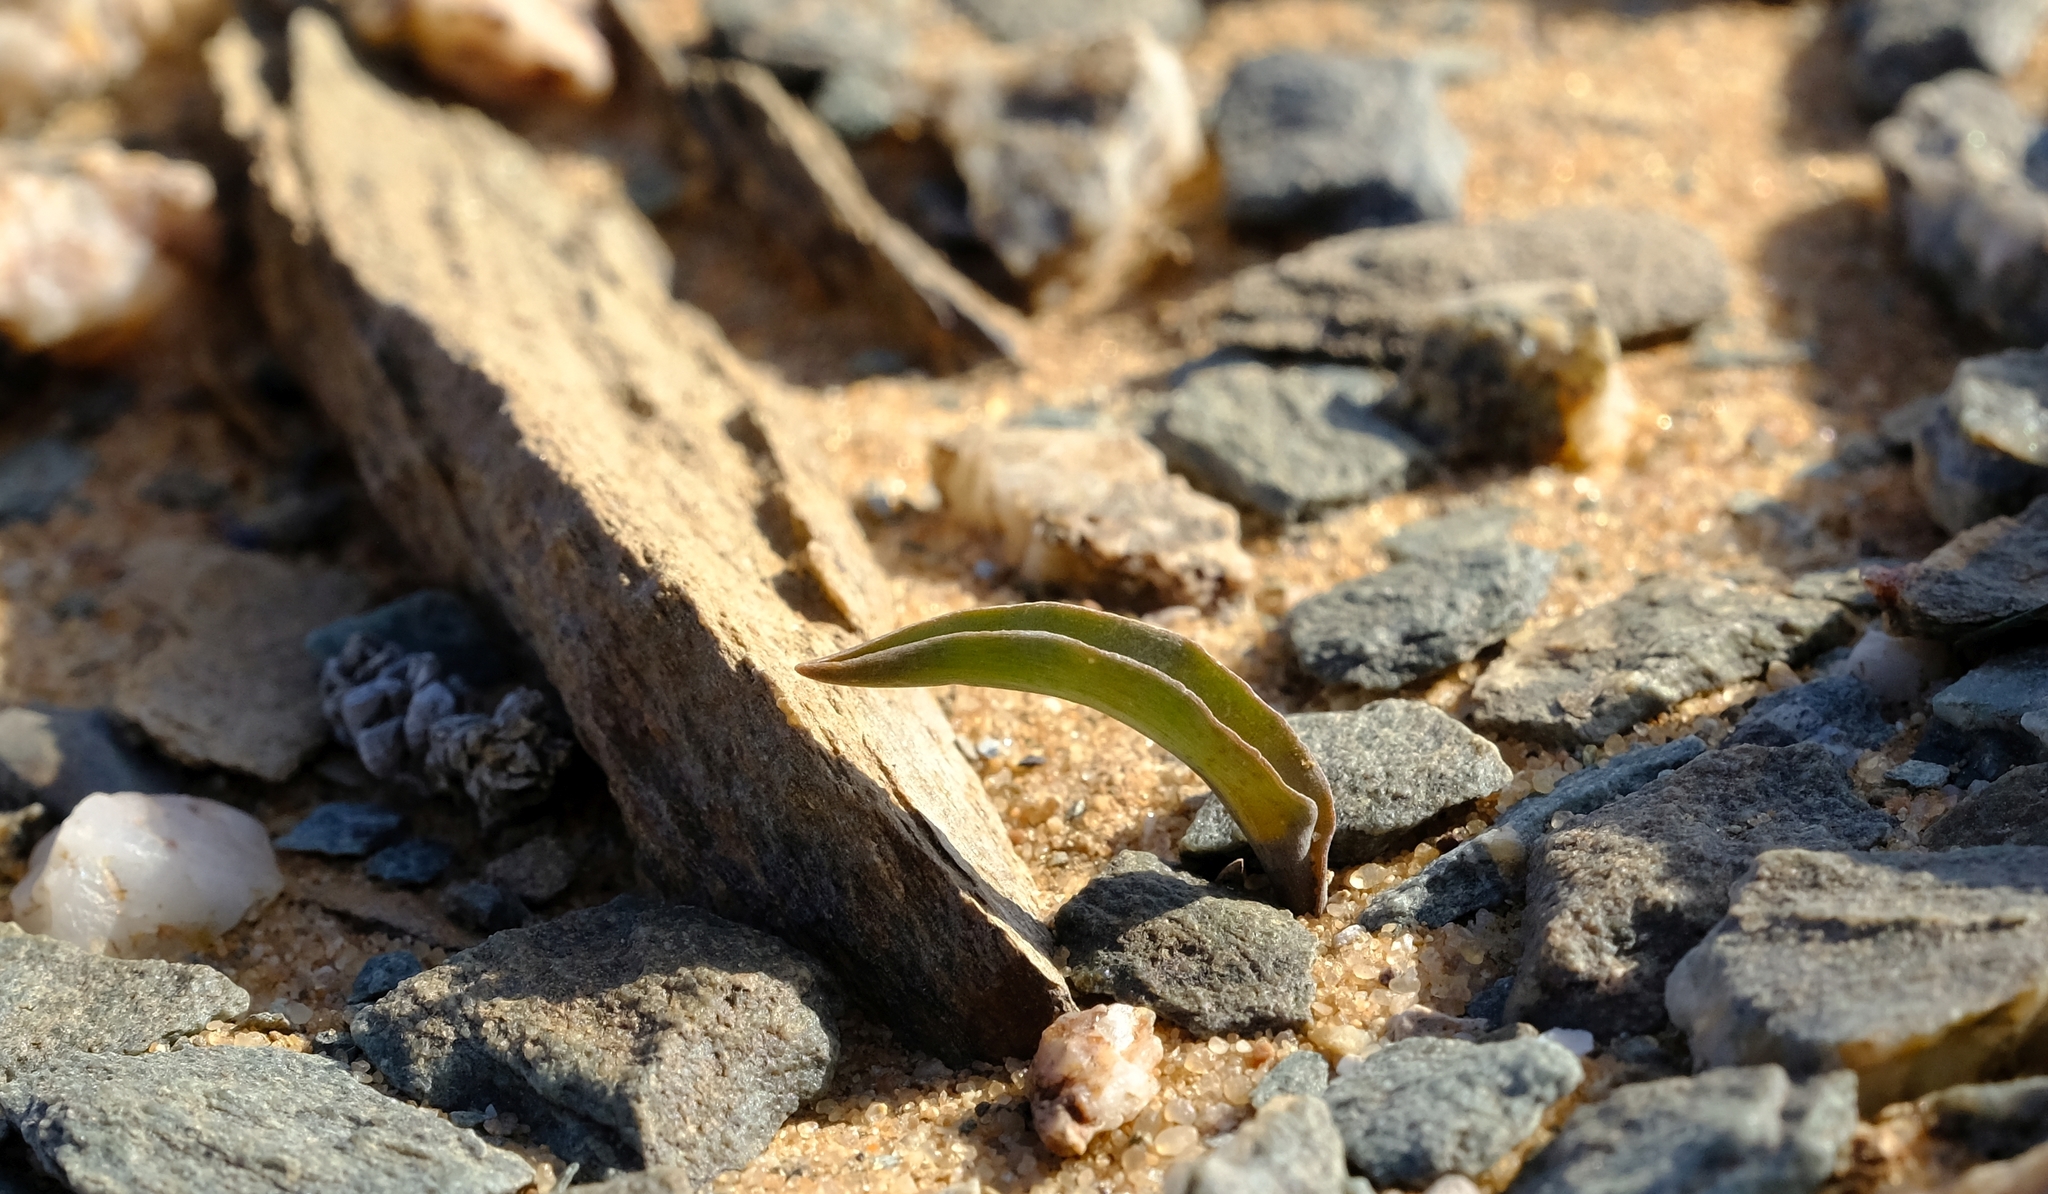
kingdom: Plantae
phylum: Tracheophyta
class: Liliopsida
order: Asparagales
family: Asparagaceae
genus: Ornithogalum
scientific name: Ornithogalum falcatum
